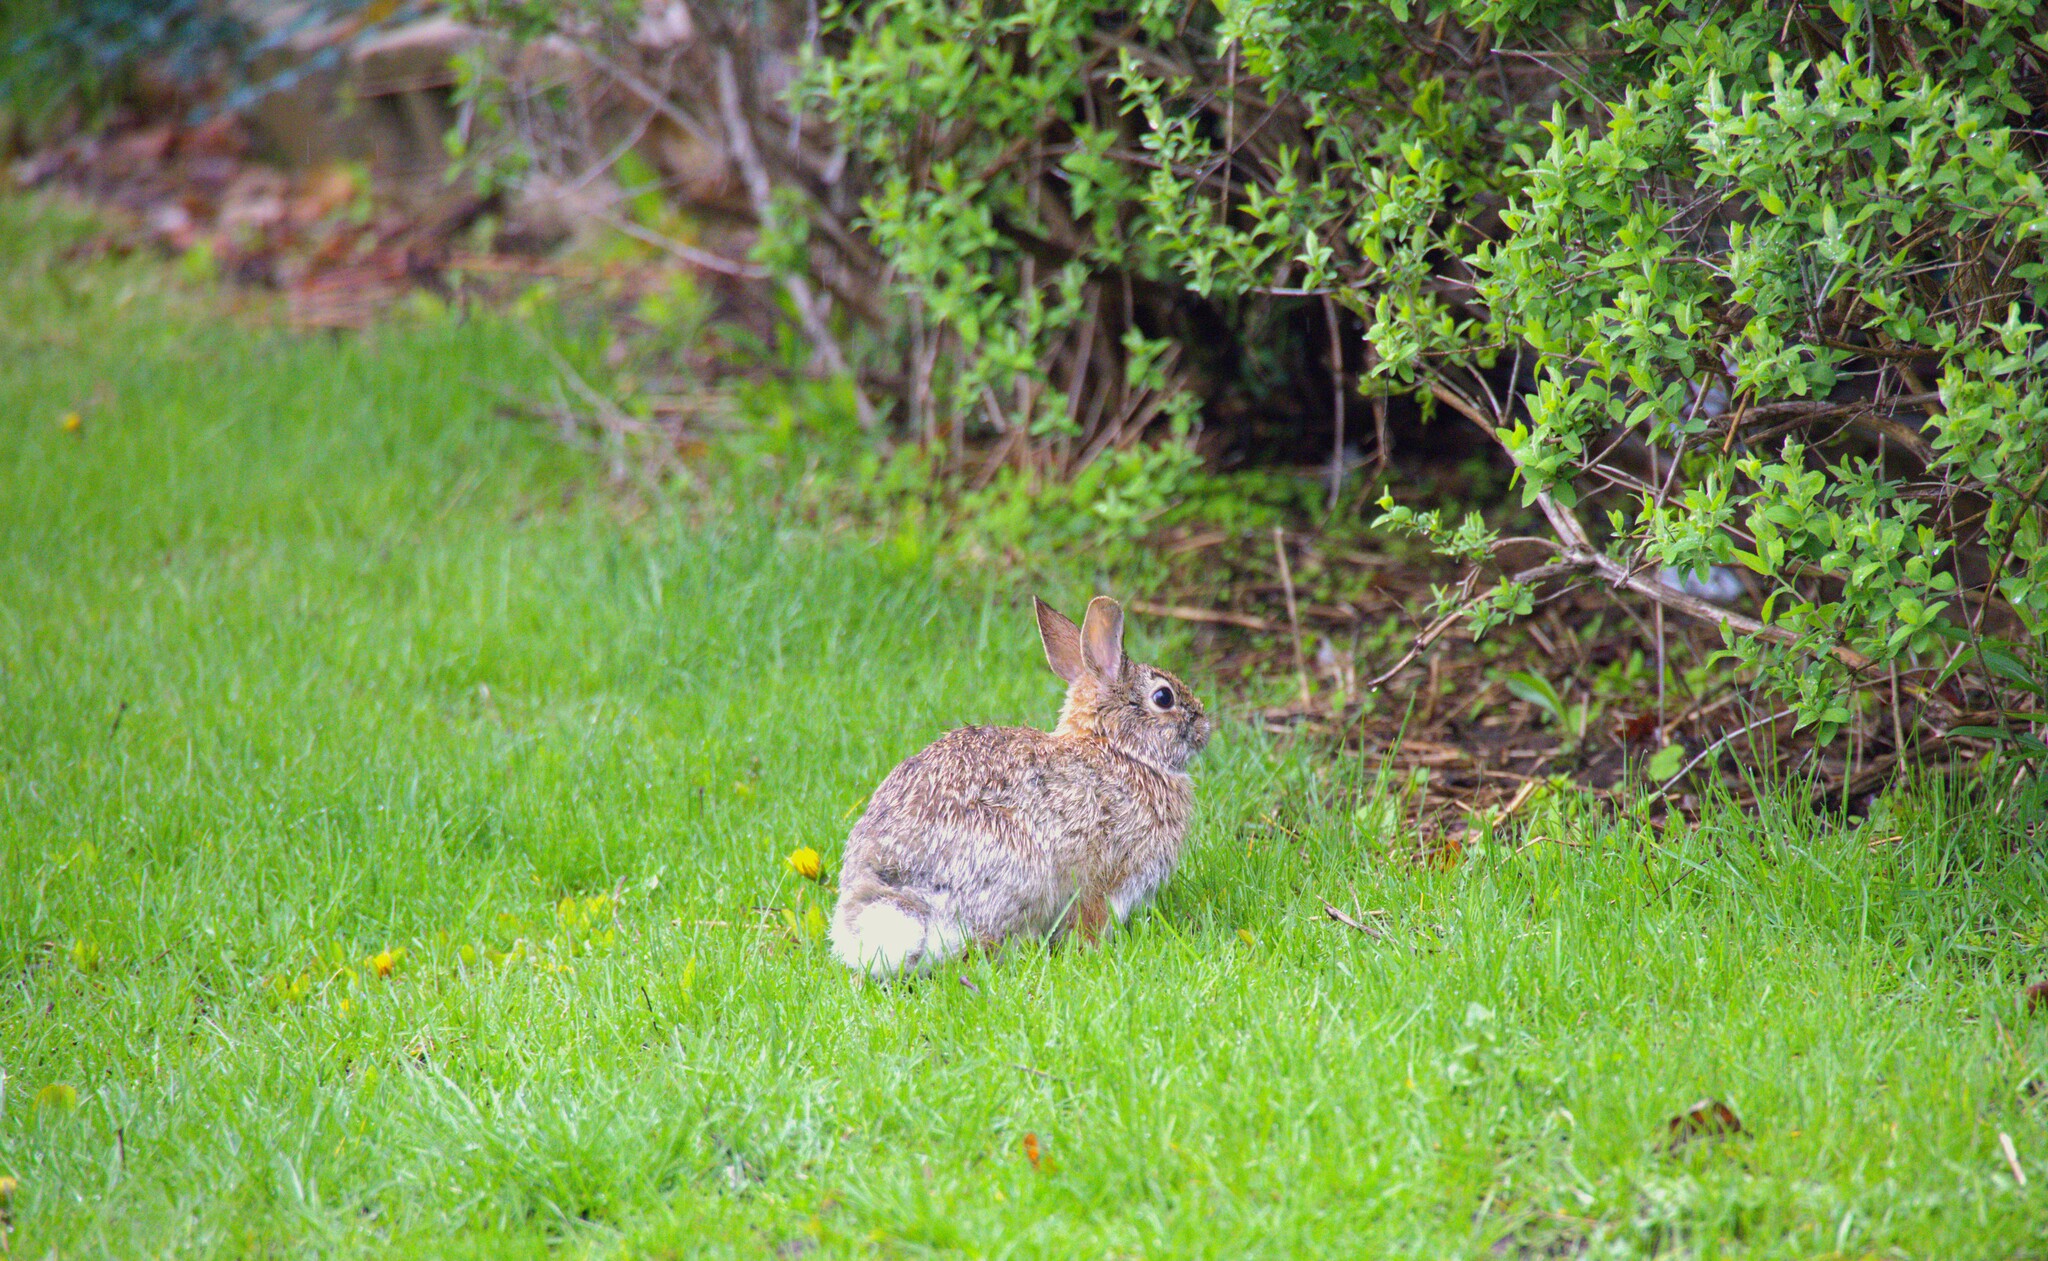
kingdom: Animalia
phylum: Chordata
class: Mammalia
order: Lagomorpha
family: Leporidae
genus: Sylvilagus
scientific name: Sylvilagus floridanus
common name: Eastern cottontail
